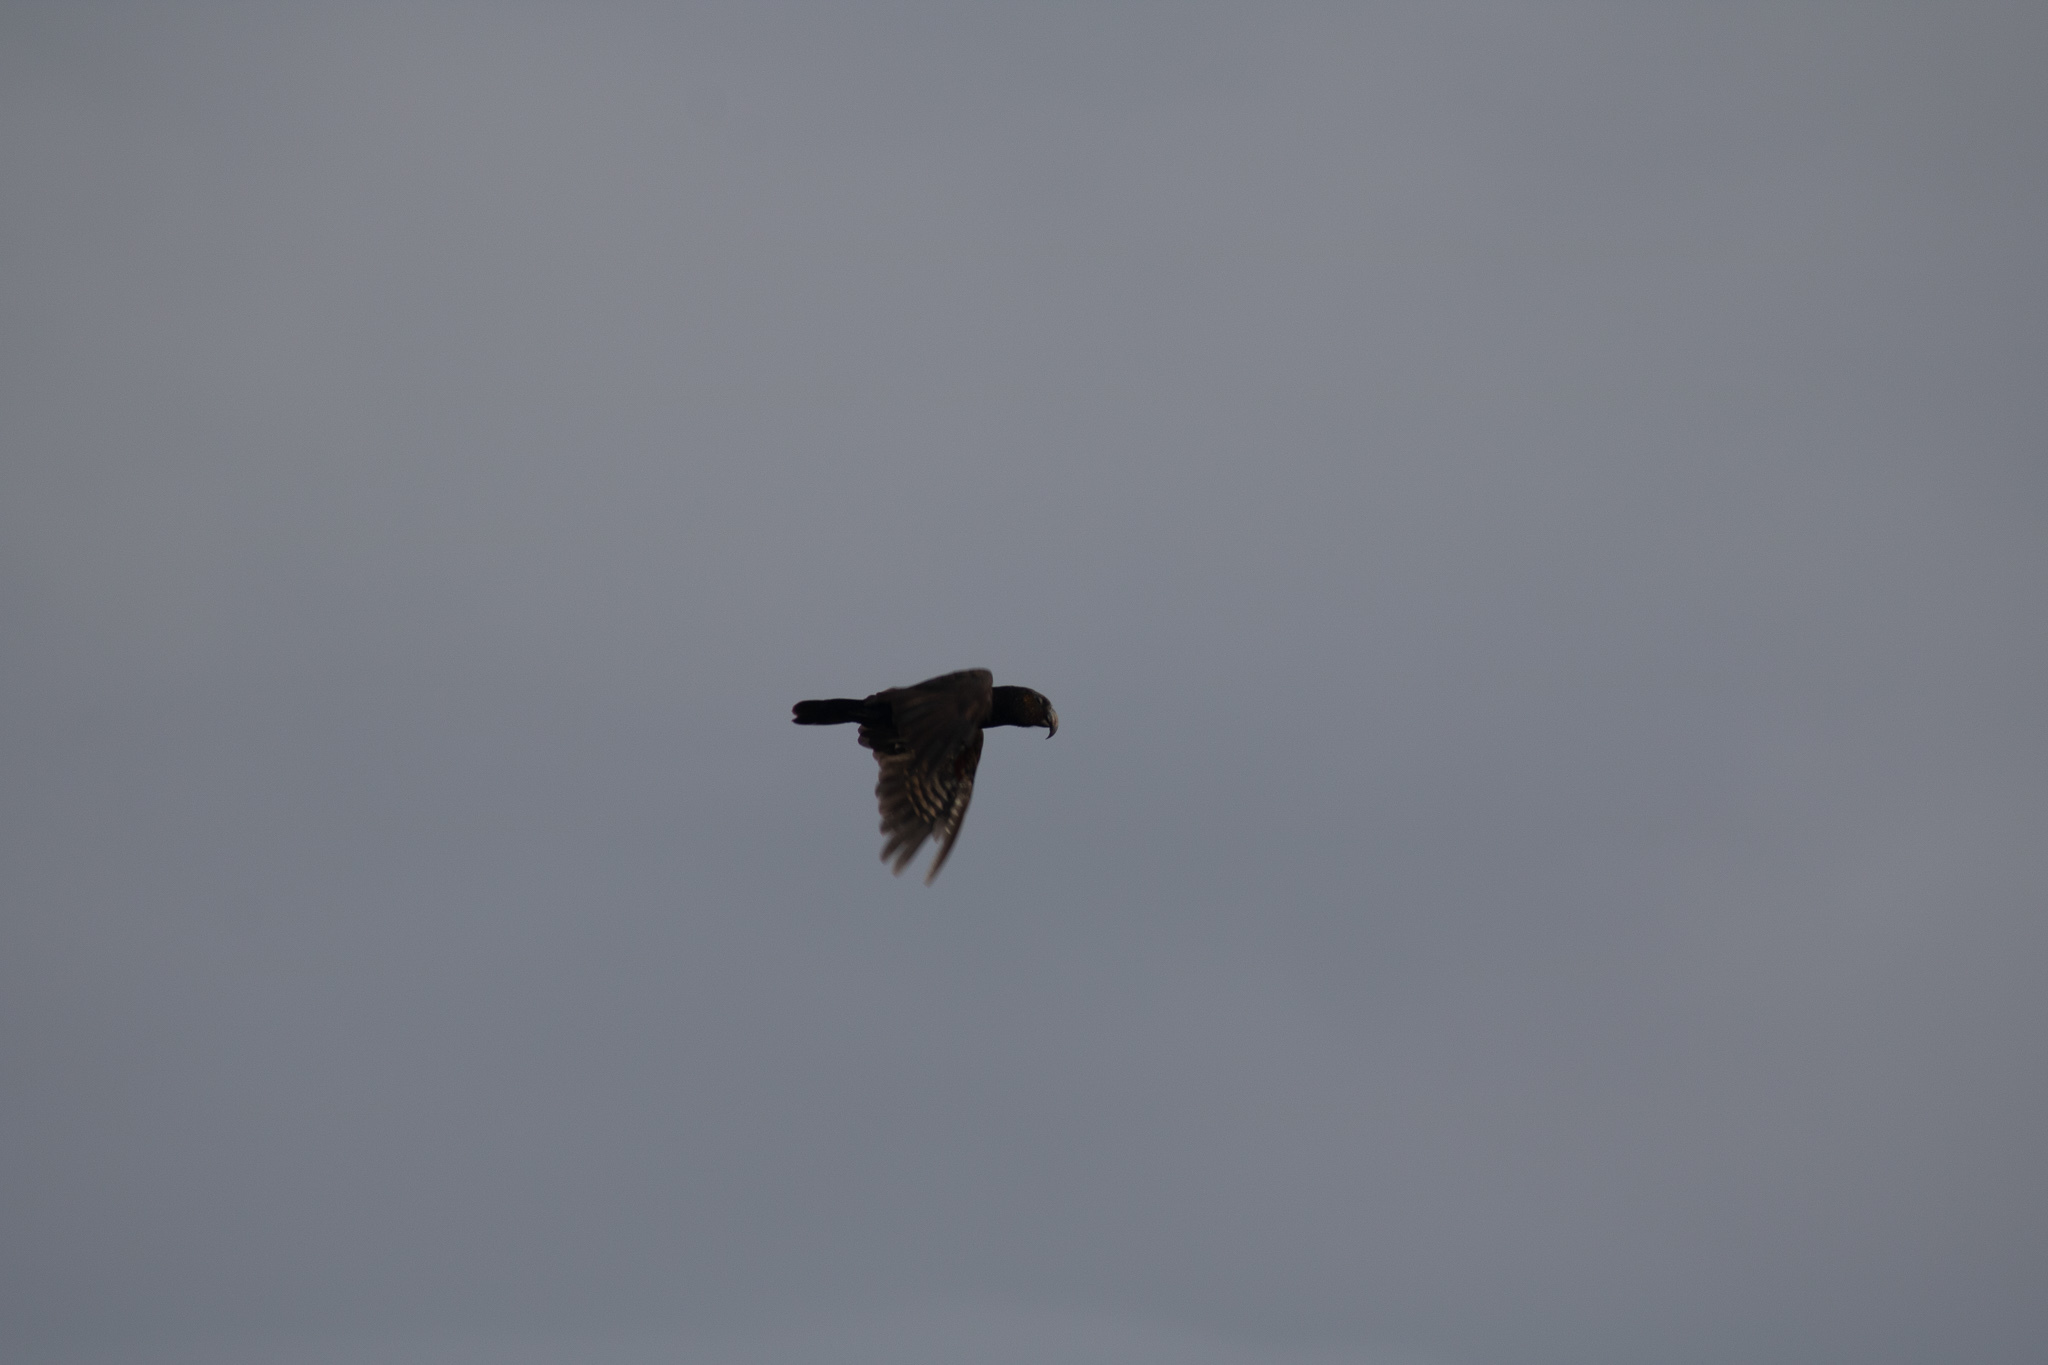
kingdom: Animalia
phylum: Chordata
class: Aves
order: Psittaciformes
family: Psittacidae
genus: Nestor
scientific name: Nestor meridionalis
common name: New zealand kaka
